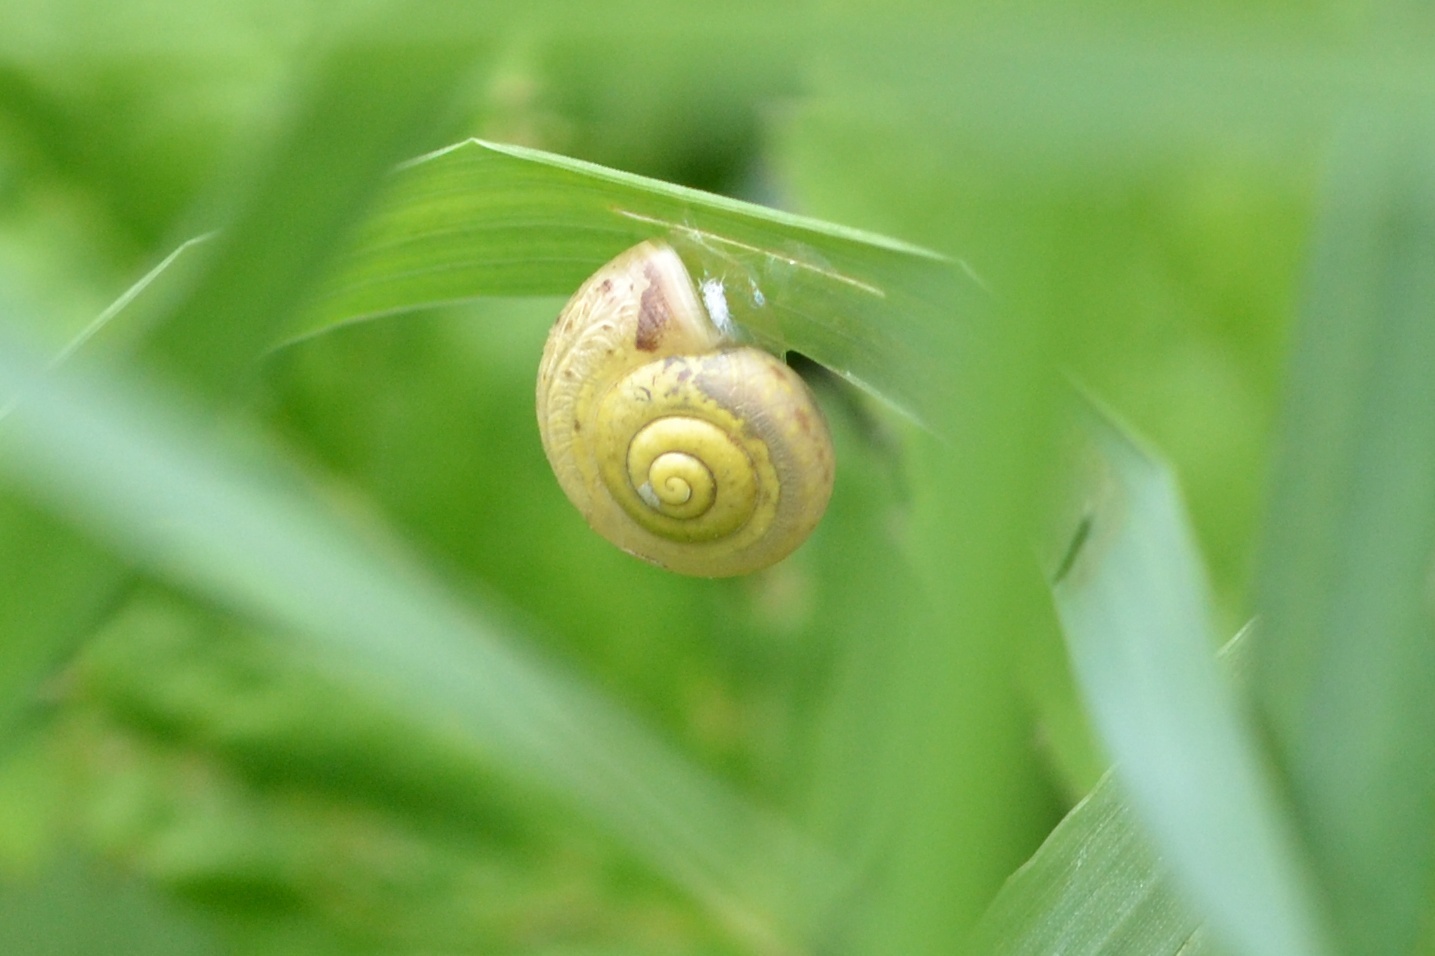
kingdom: Animalia
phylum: Mollusca
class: Gastropoda
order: Stylommatophora
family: Camaenidae
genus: Fruticicola
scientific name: Fruticicola fruticum
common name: Bush snail
